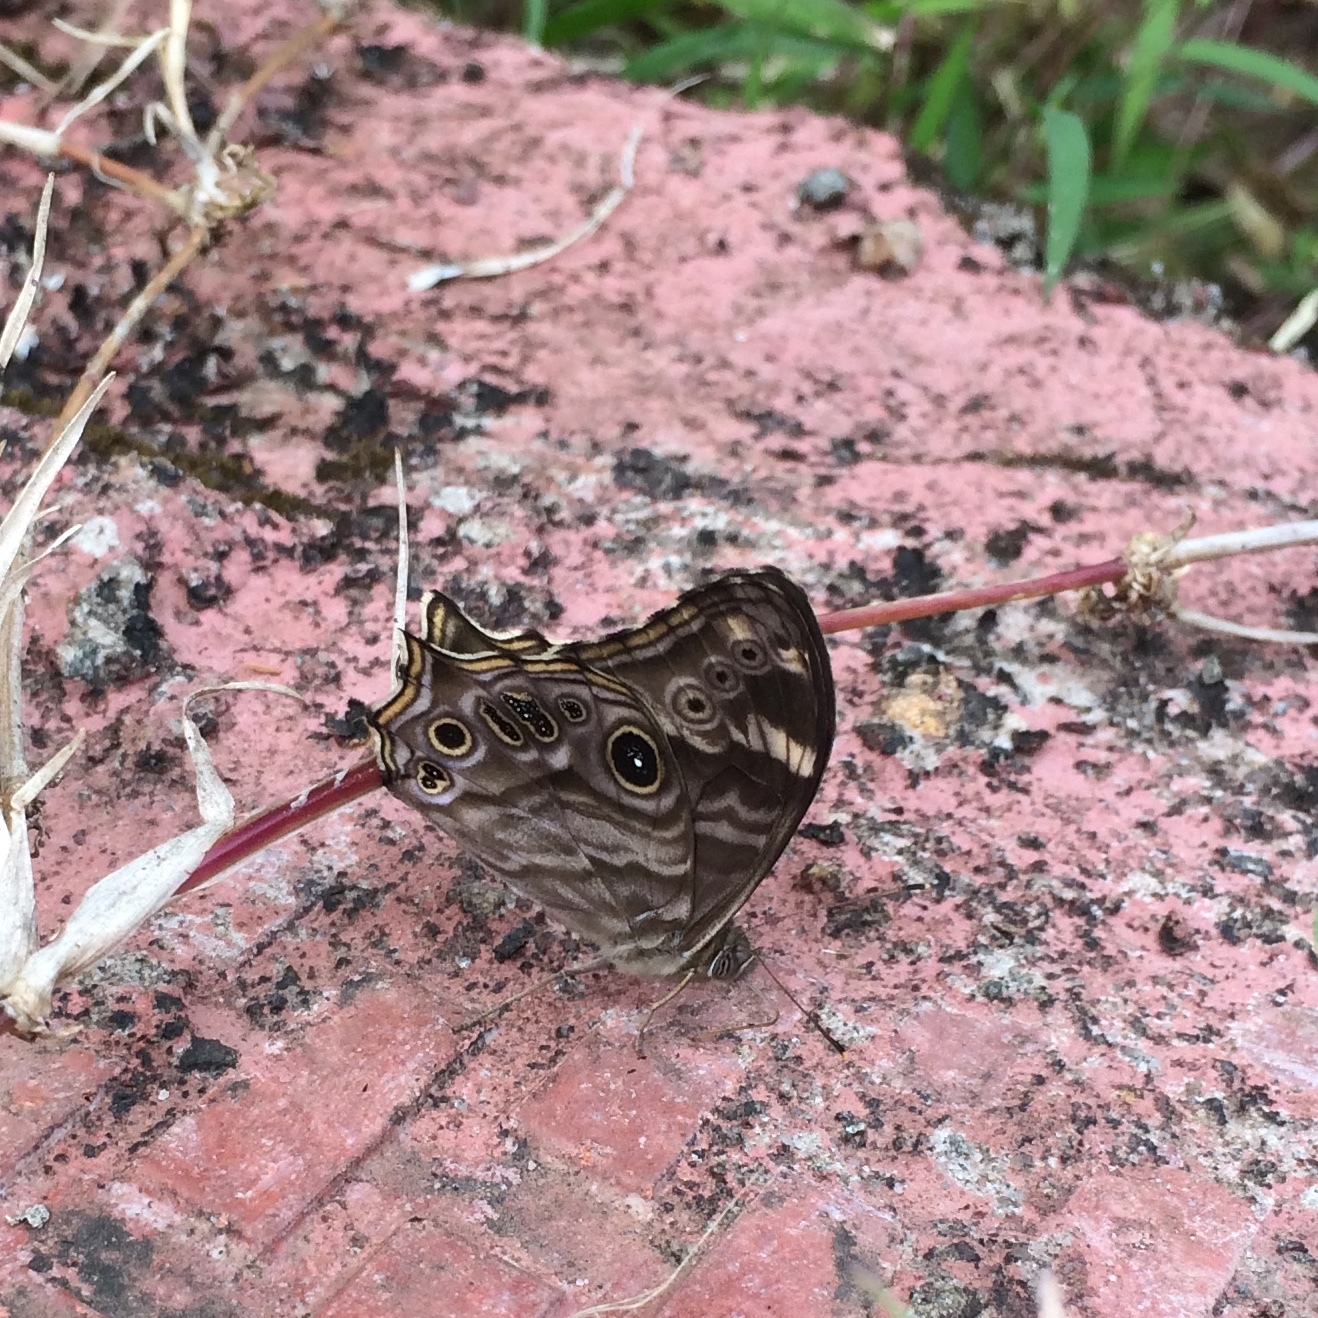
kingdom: Animalia
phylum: Arthropoda
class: Insecta
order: Lepidoptera
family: Nymphalidae
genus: Lethe
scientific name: Lethe rohria
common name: Common treebrown
